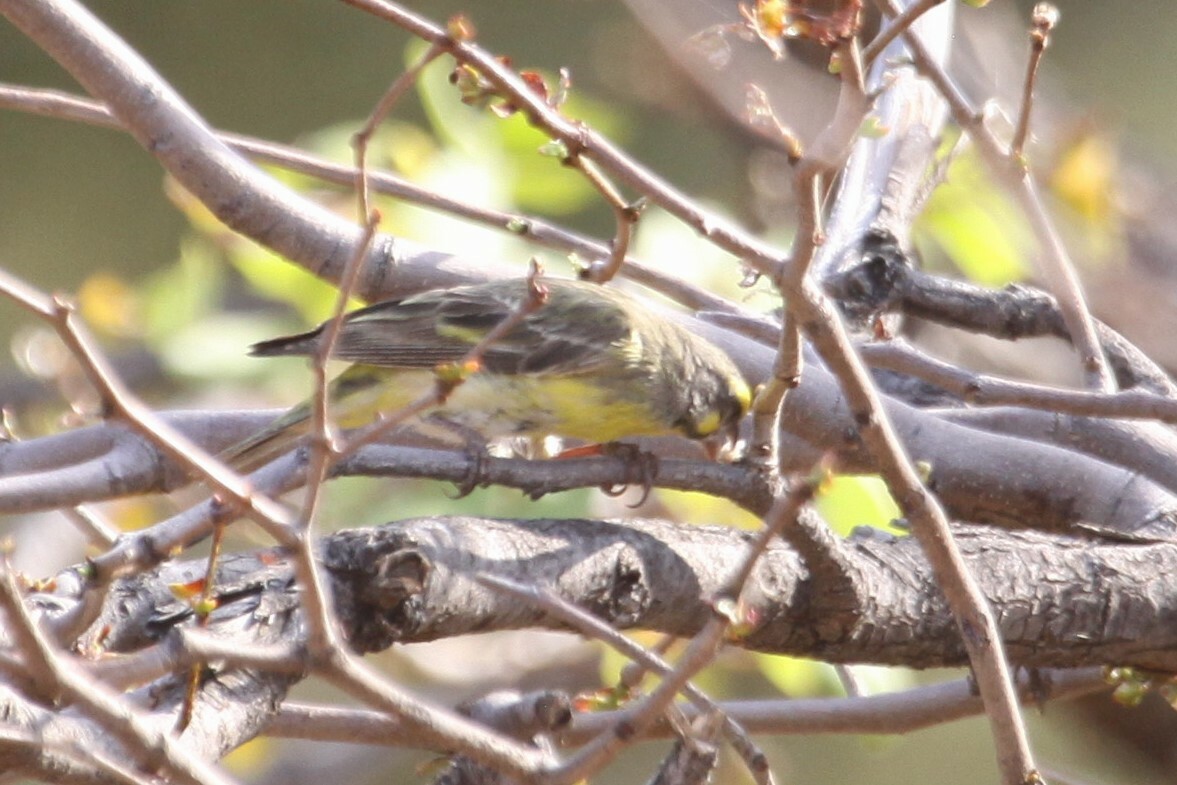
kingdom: Animalia
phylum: Chordata
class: Aves
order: Passeriformes
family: Fringillidae
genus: Crithagra
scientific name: Crithagra mozambica
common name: Yellow-fronted canary
